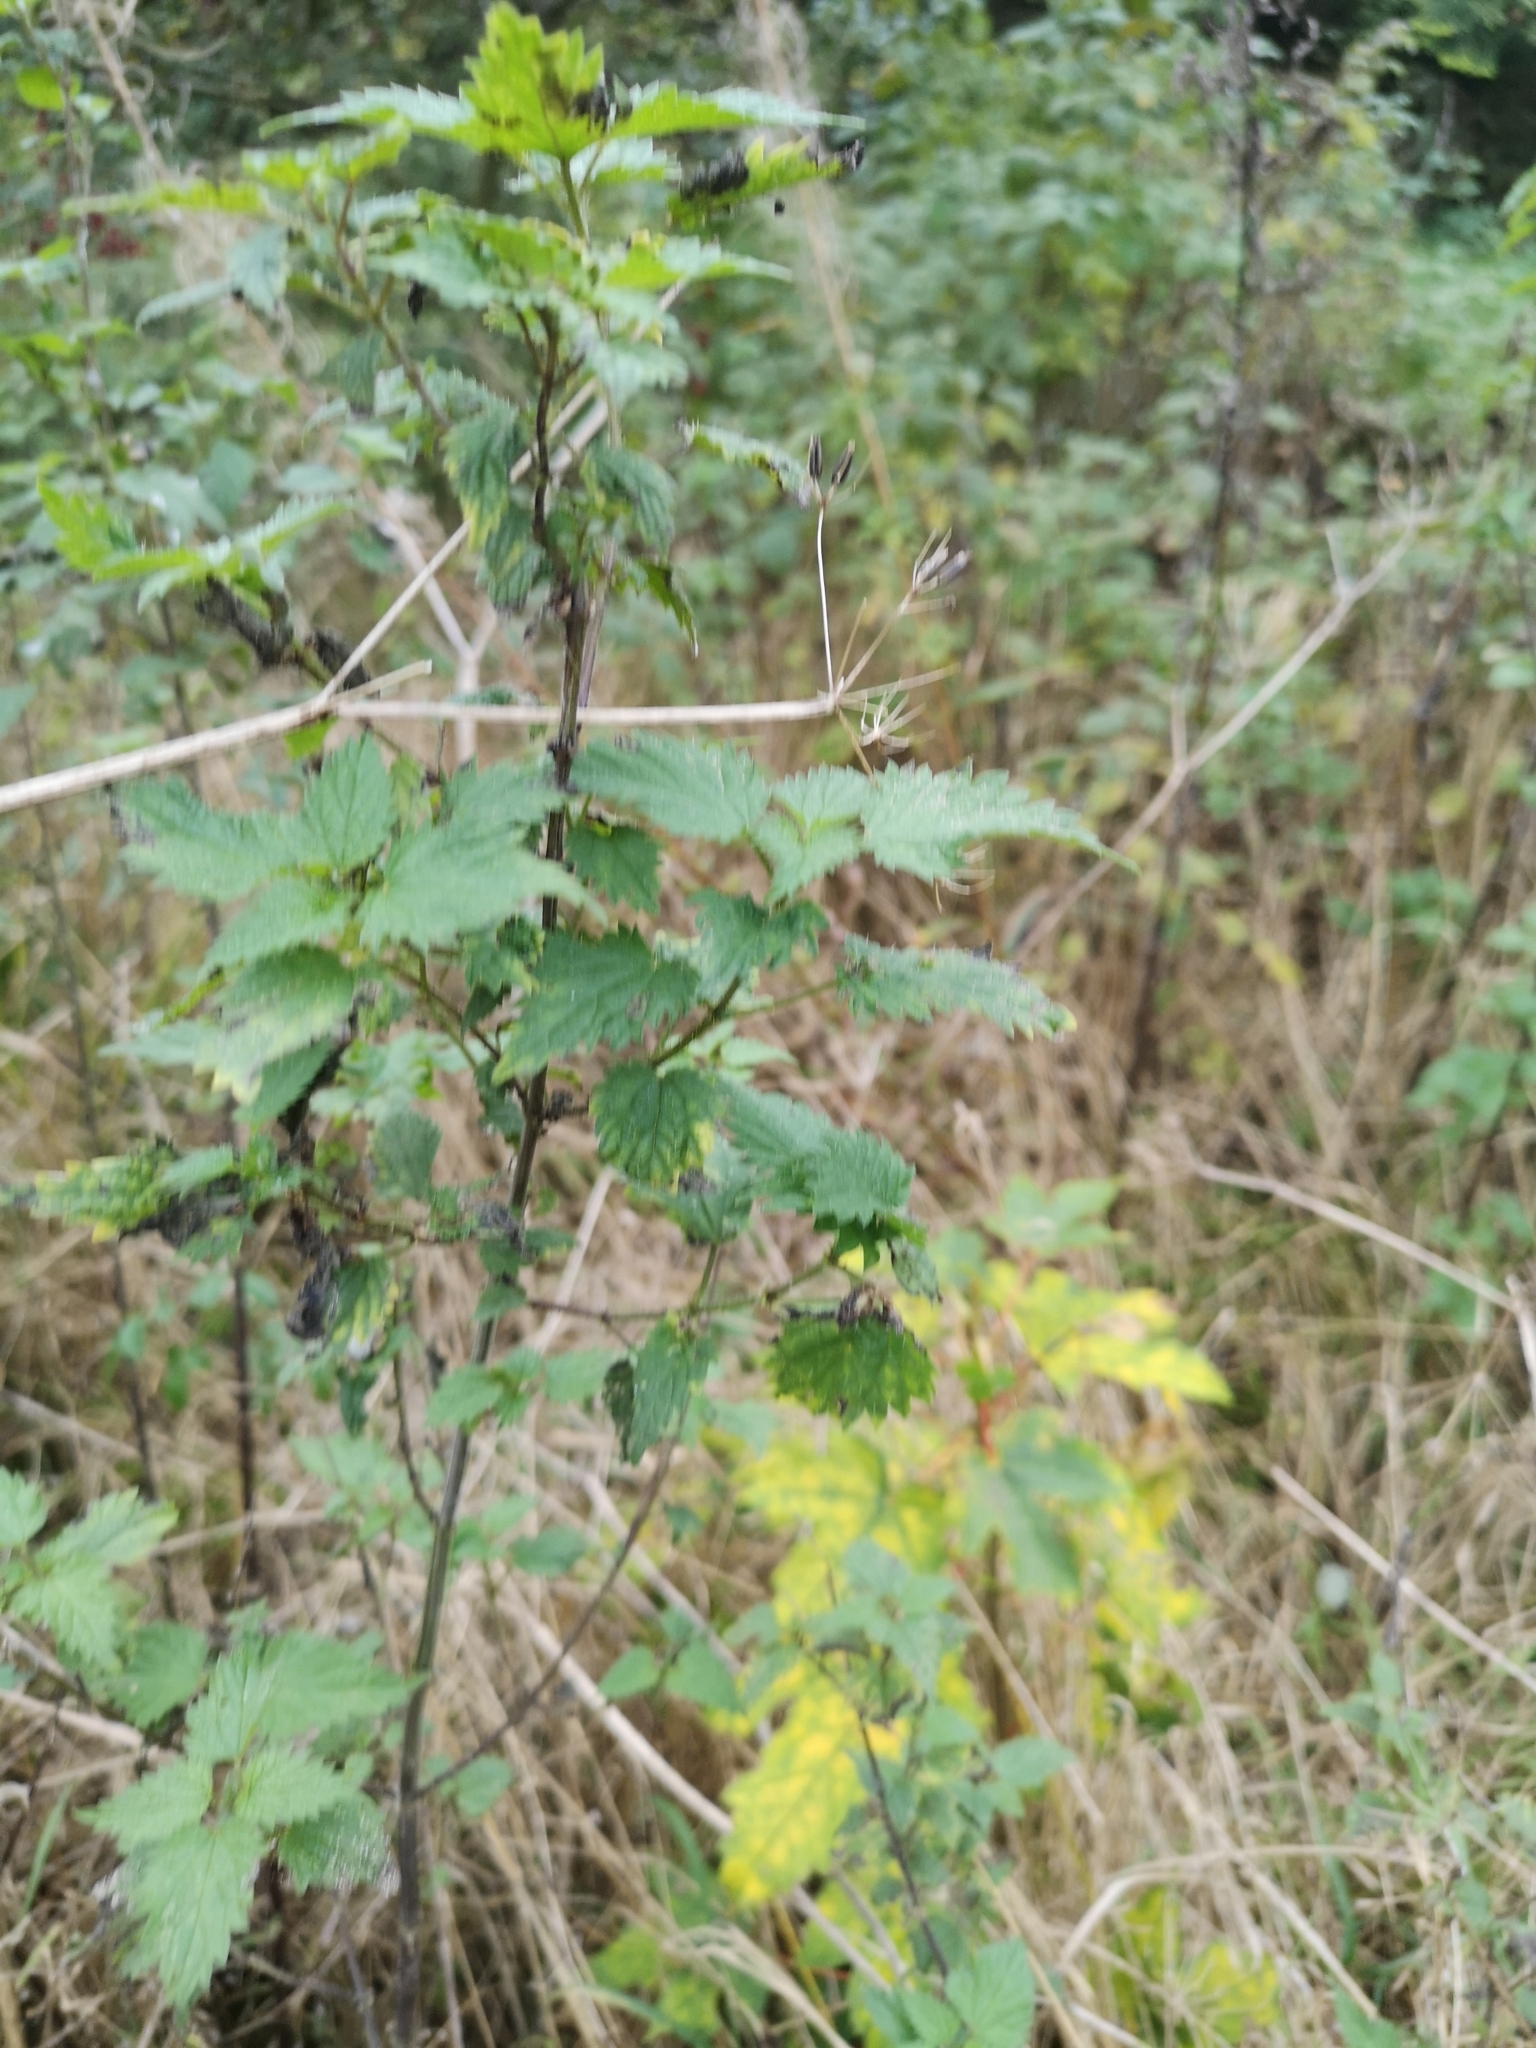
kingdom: Plantae
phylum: Tracheophyta
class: Magnoliopsida
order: Rosales
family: Urticaceae
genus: Urtica
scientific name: Urtica dioica
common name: Common nettle
